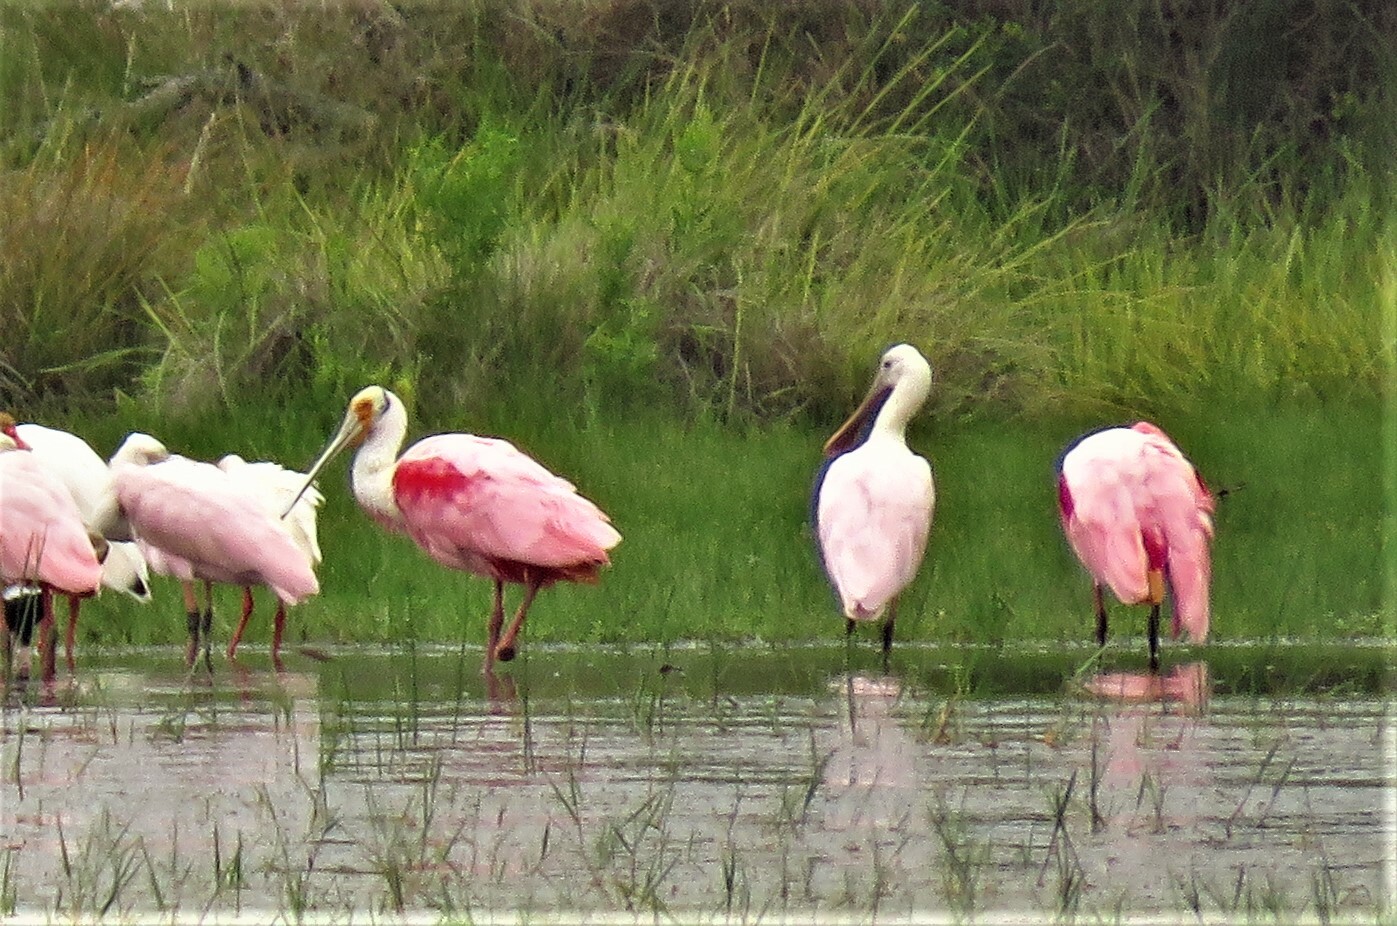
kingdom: Animalia
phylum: Chordata
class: Aves
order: Pelecaniformes
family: Threskiornithidae
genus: Platalea
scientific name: Platalea ajaja
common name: Roseate spoonbill
